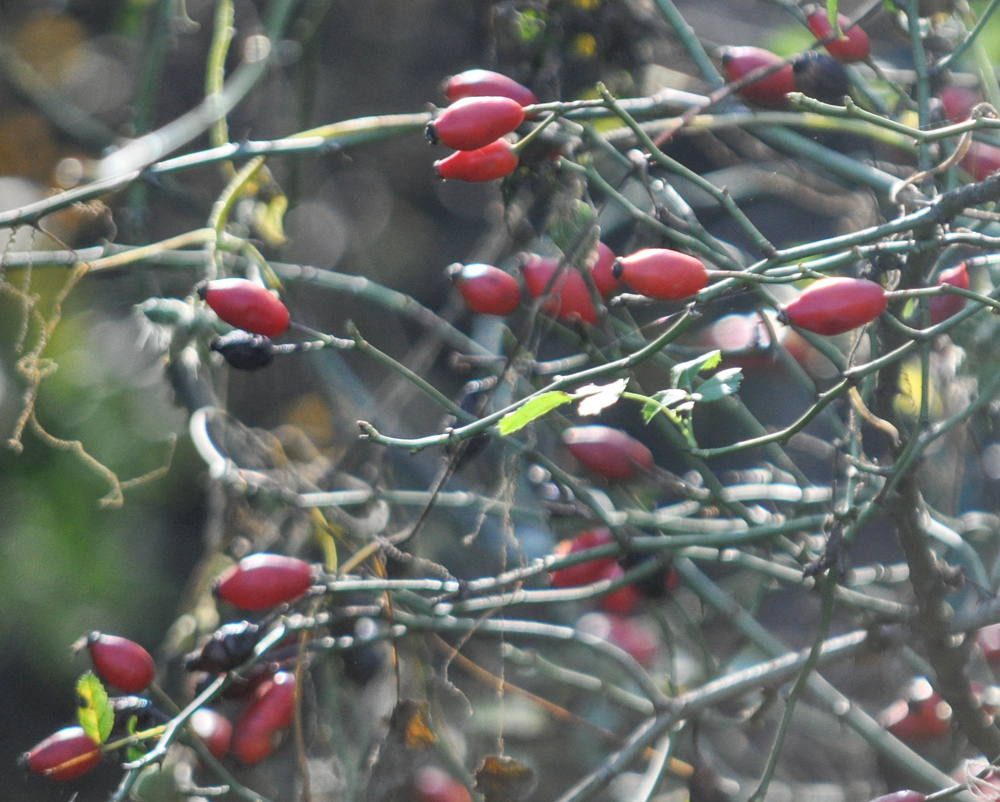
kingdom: Plantae
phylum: Tracheophyta
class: Magnoliopsida
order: Rosales
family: Rosaceae
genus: Rosa
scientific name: Rosa canina
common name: Dog rose
